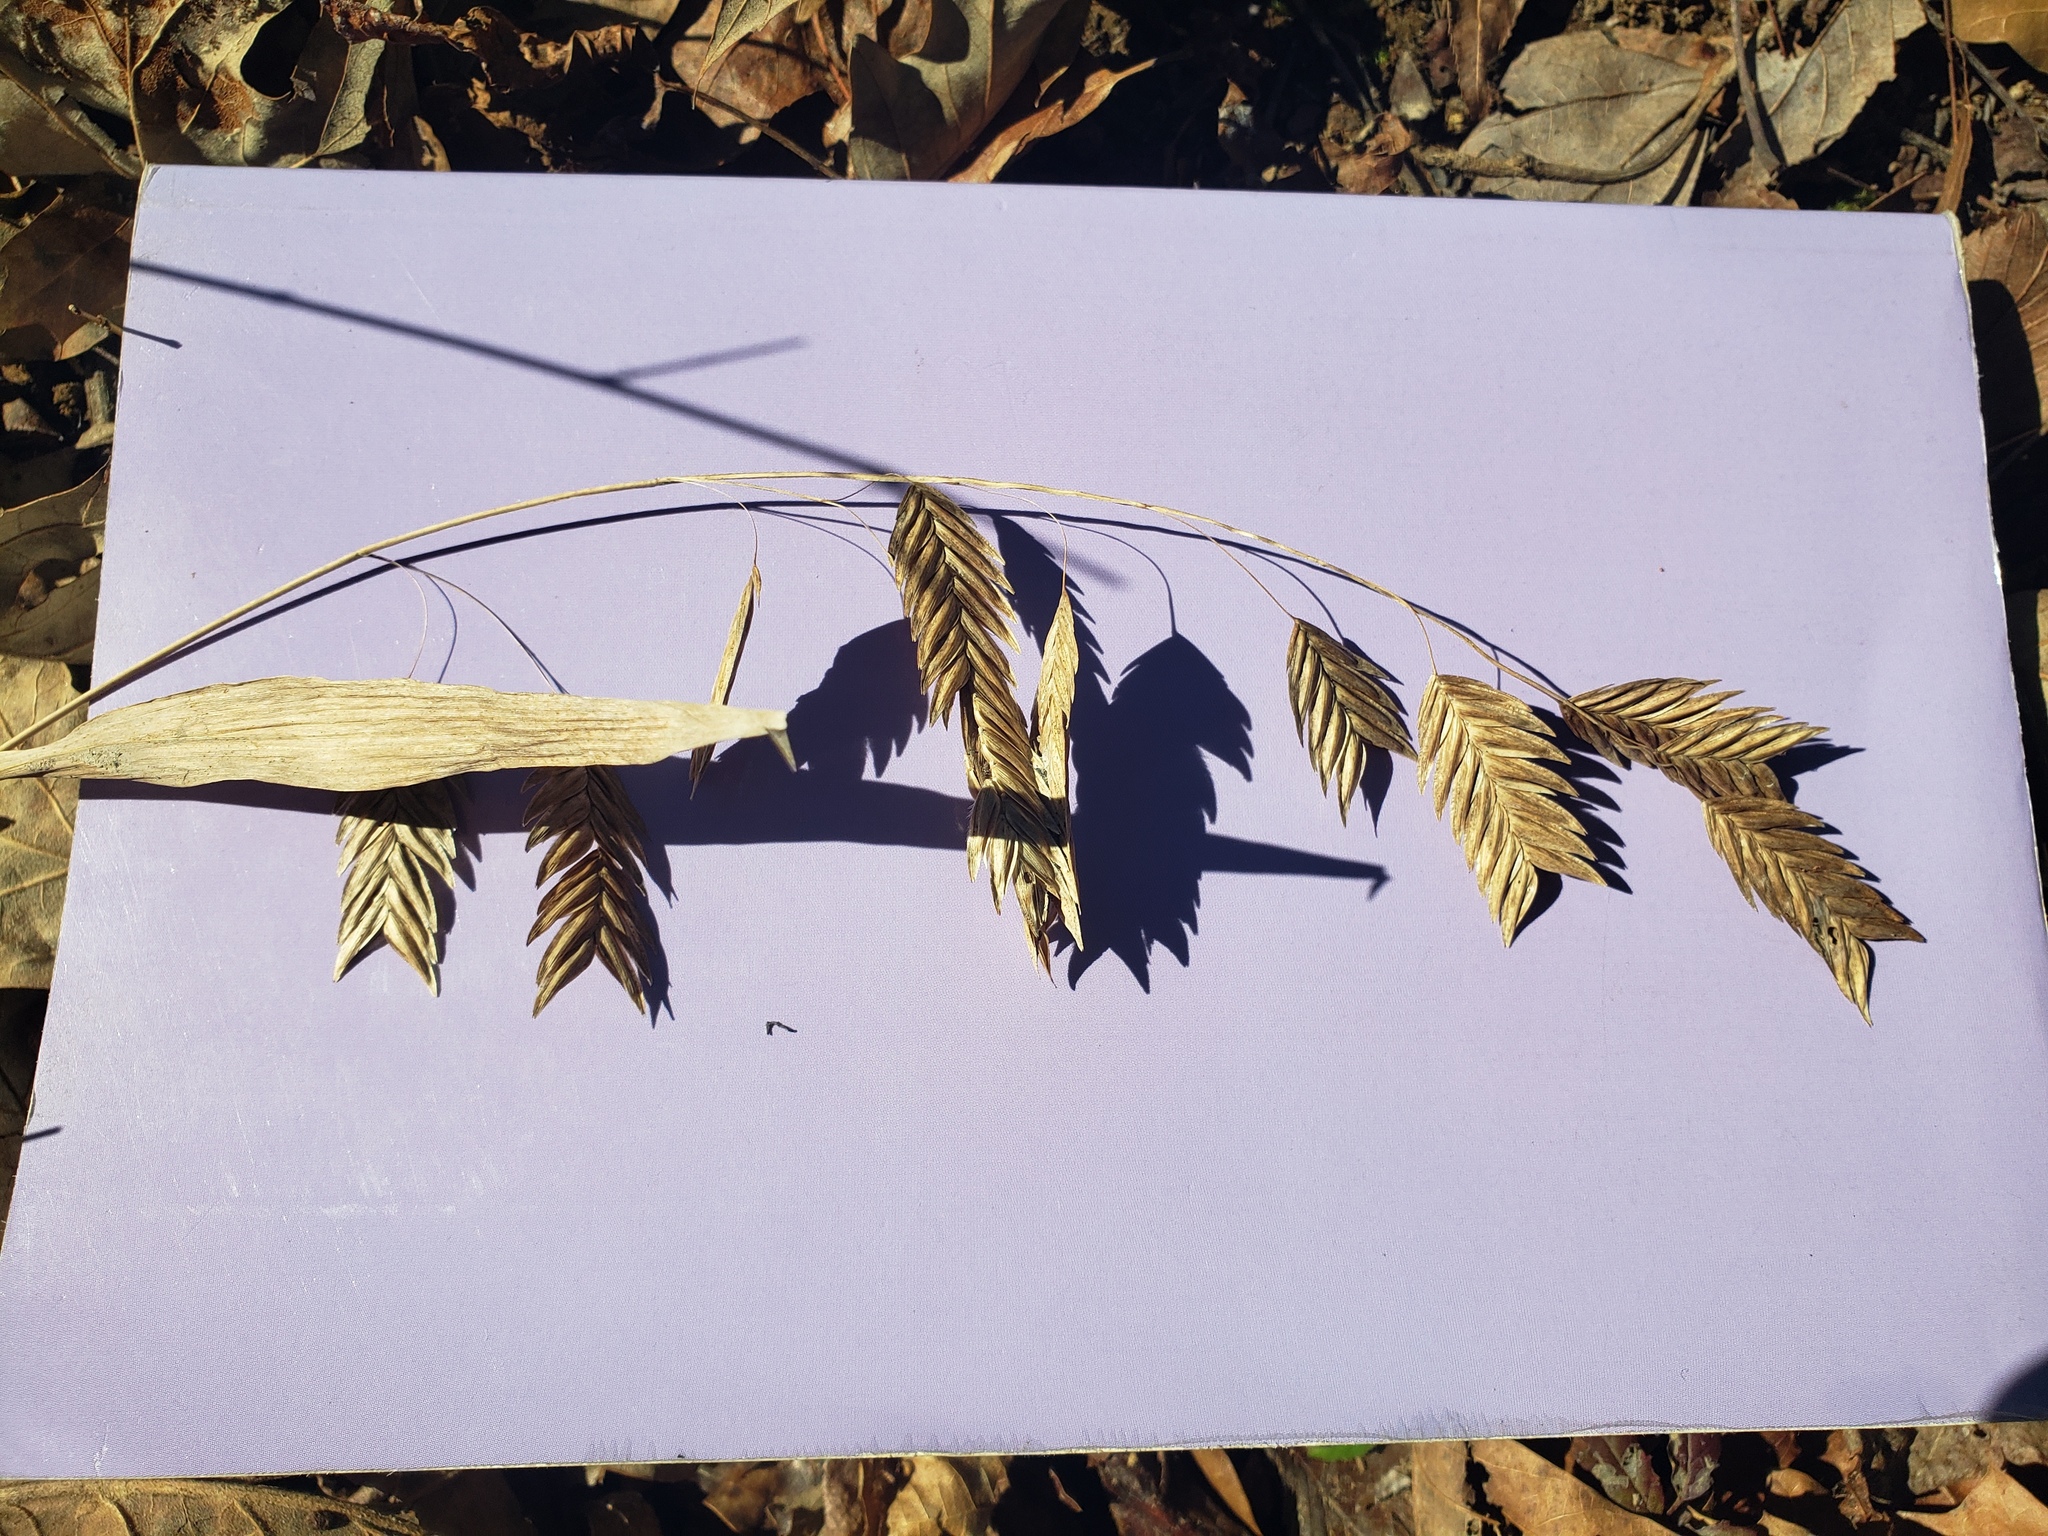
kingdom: Plantae
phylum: Tracheophyta
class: Liliopsida
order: Poales
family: Poaceae
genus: Chasmanthium
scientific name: Chasmanthium latifolium
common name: Broad-leaved chasmanthium
